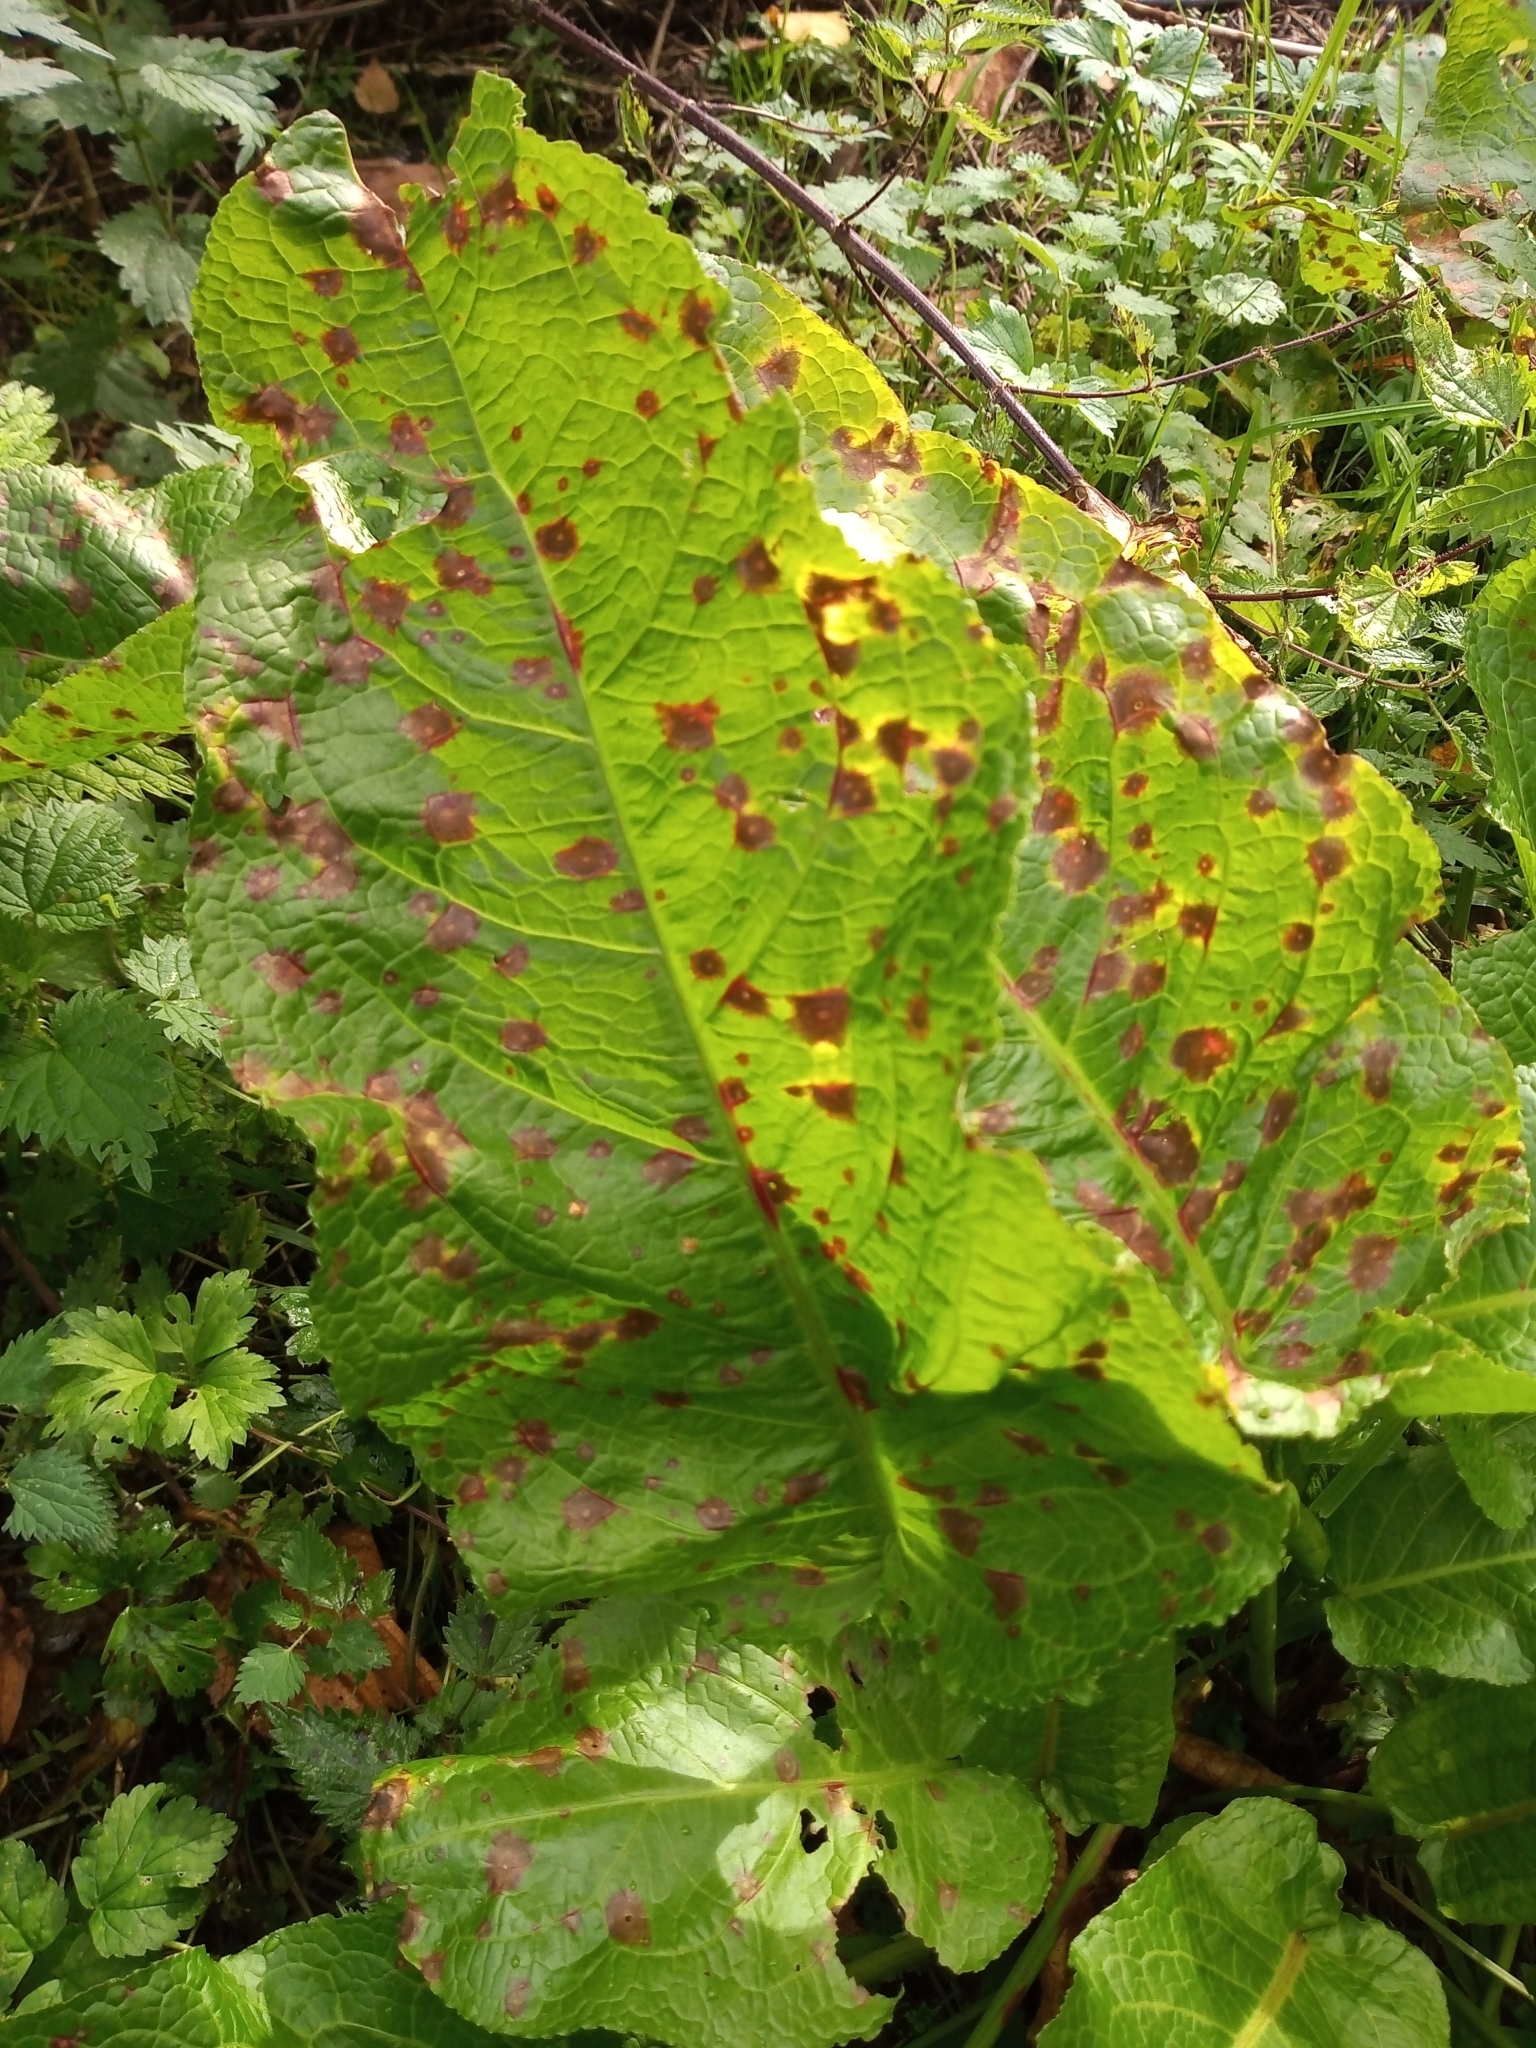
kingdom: Plantae
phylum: Tracheophyta
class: Magnoliopsida
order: Caryophyllales
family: Polygonaceae
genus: Rumex
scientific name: Rumex obtusifolius
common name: Bitter dock
